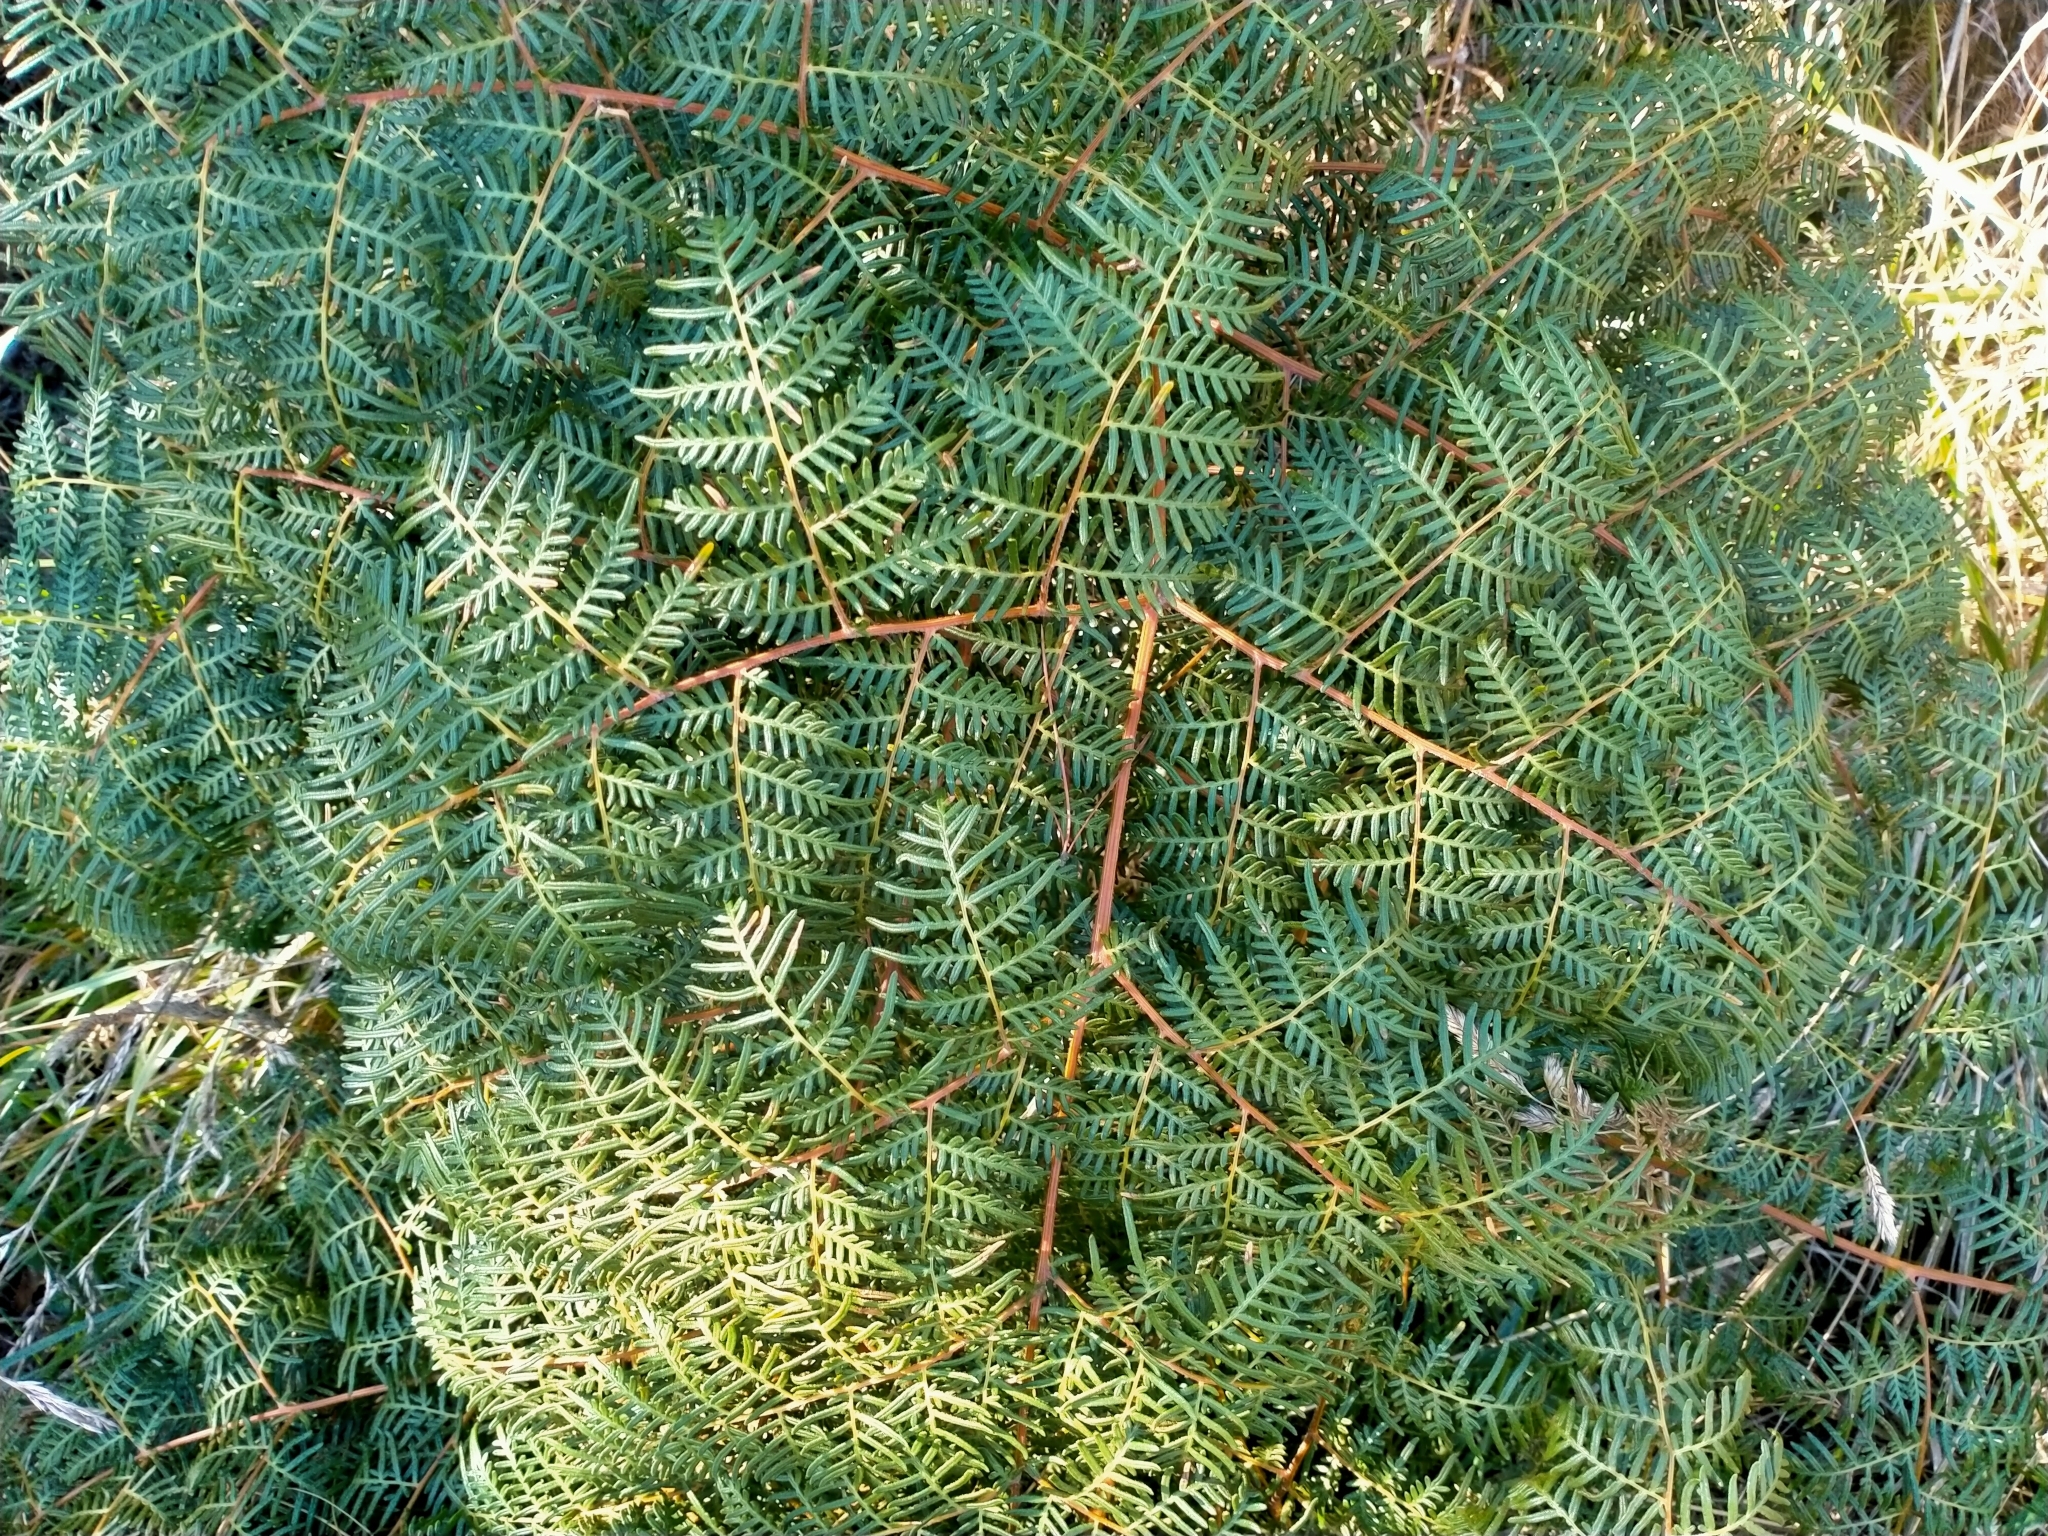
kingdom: Plantae
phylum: Tracheophyta
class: Polypodiopsida
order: Polypodiales
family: Dennstaedtiaceae
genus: Pteridium
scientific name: Pteridium esculentum
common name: Bracken fern
